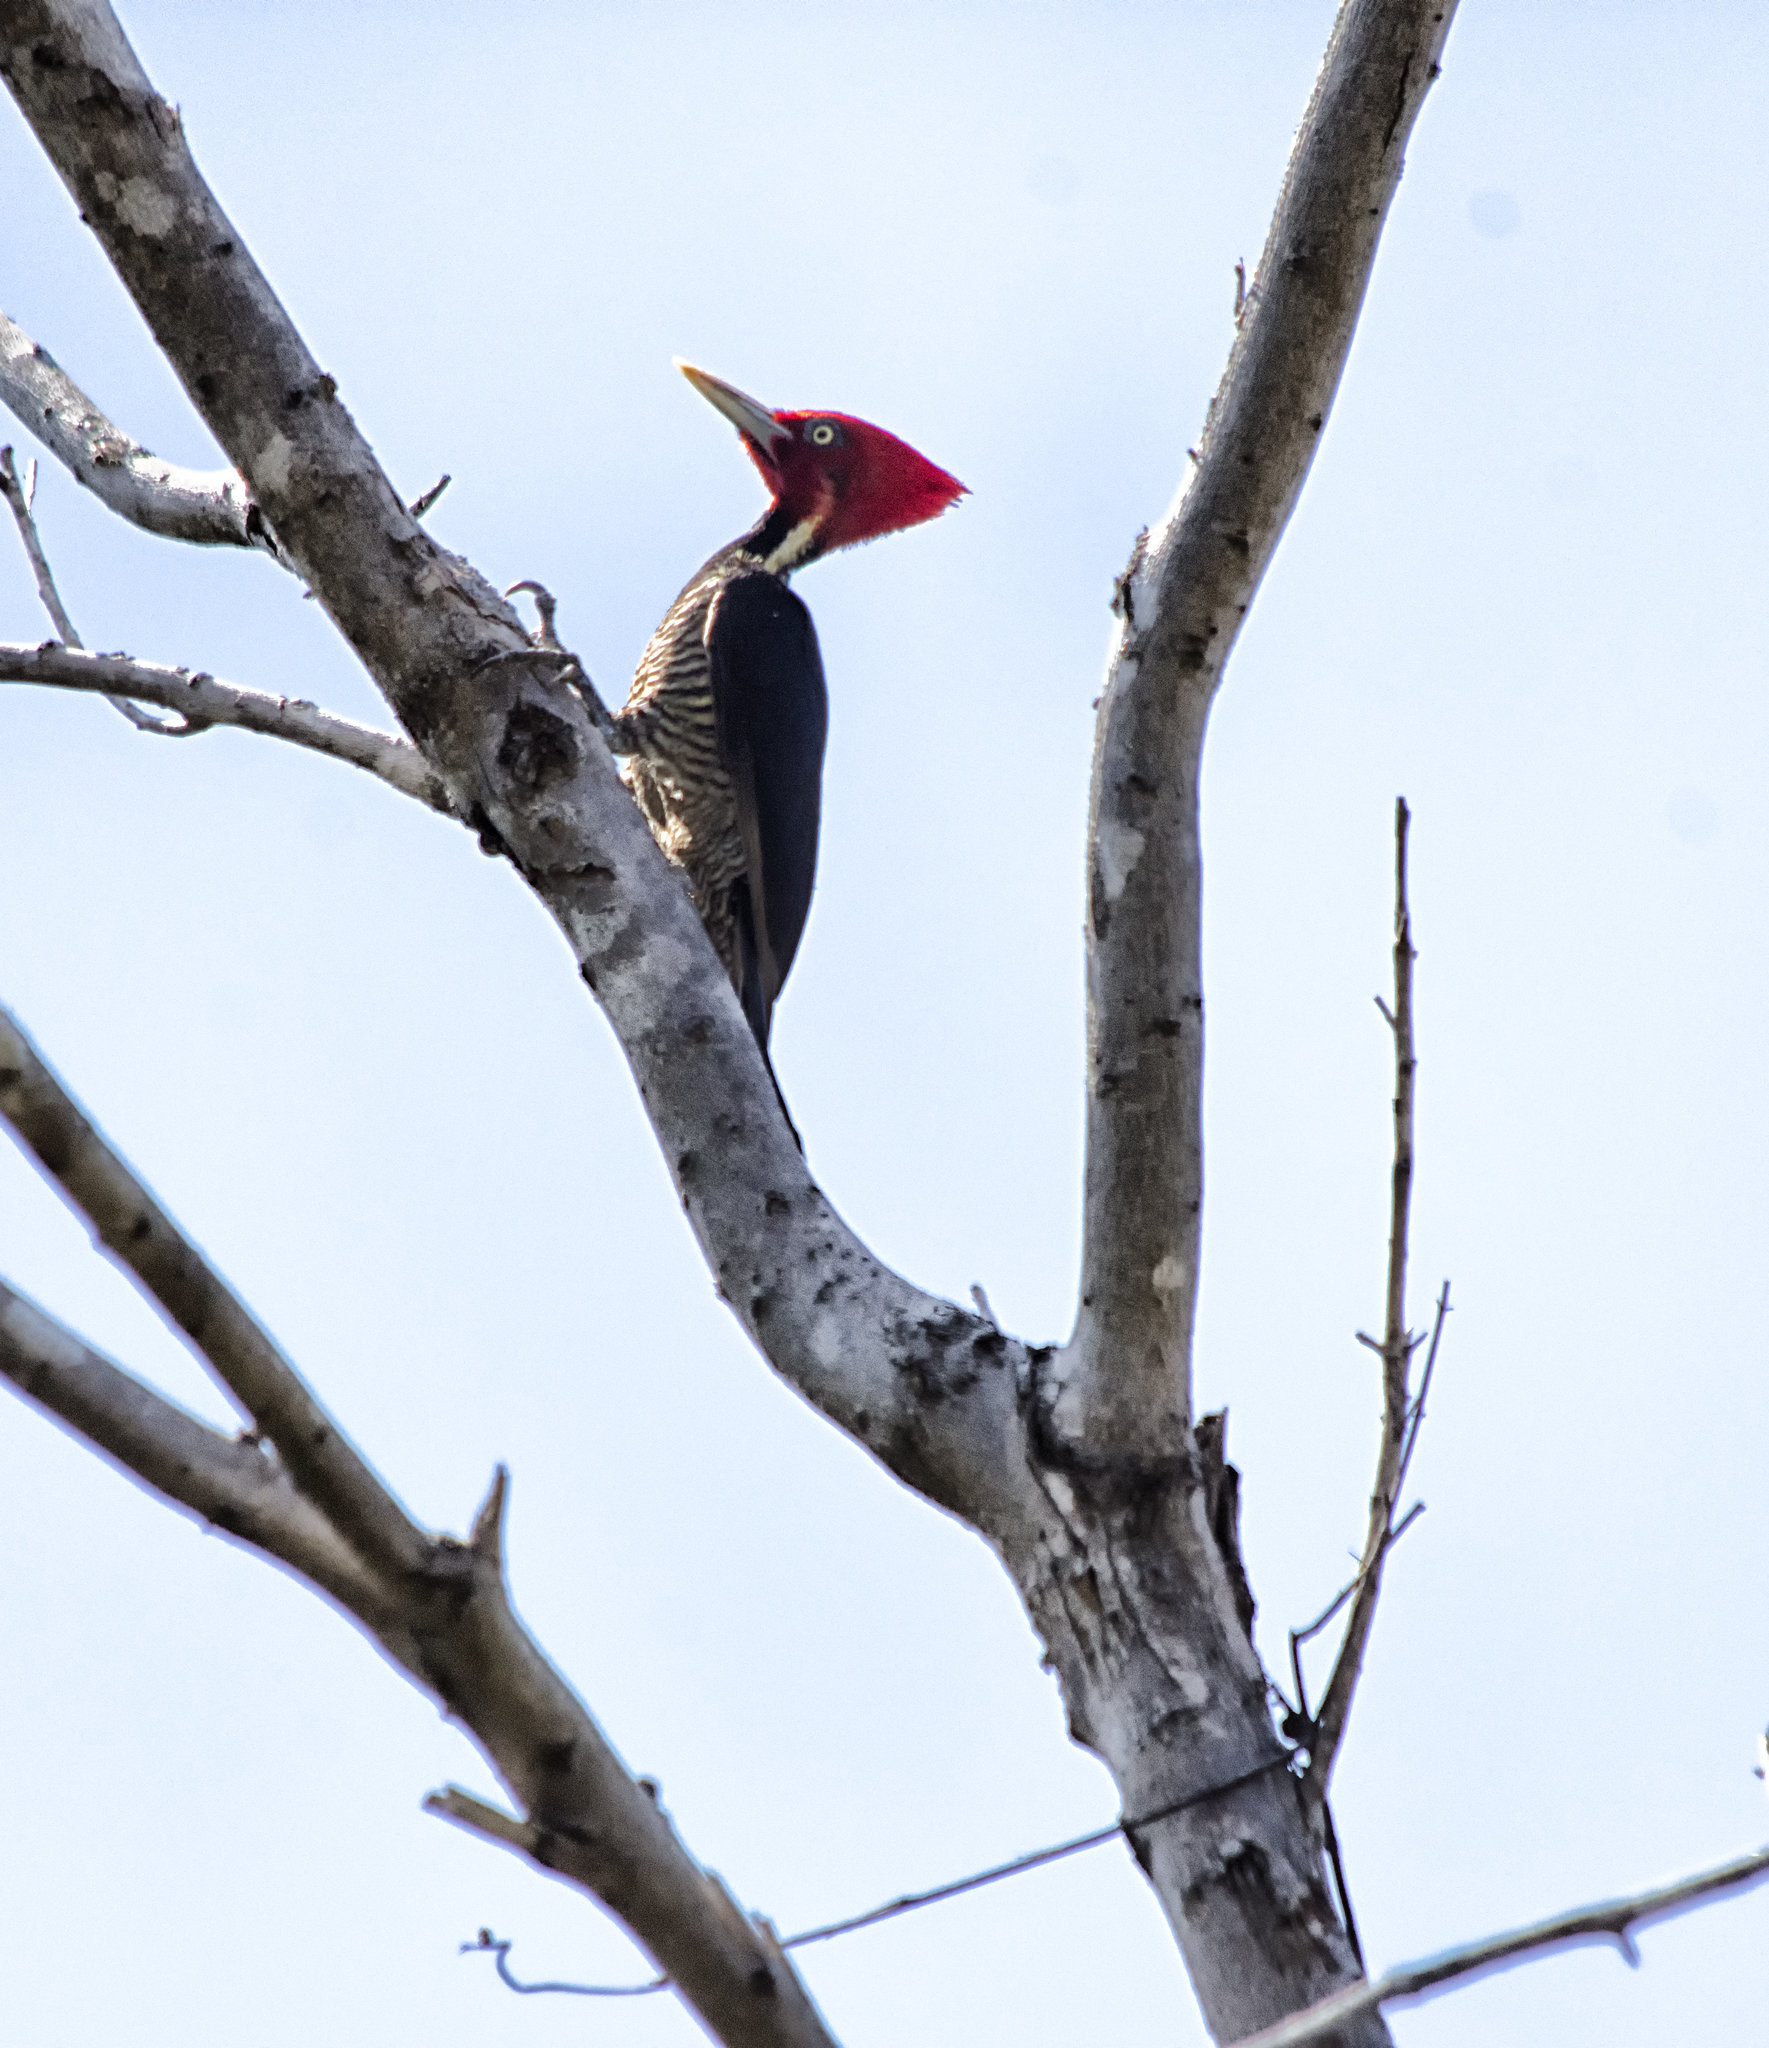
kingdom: Animalia
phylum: Chordata
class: Aves
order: Piciformes
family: Picidae
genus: Campephilus
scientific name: Campephilus guatemalensis
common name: Pale-billed woodpecker
